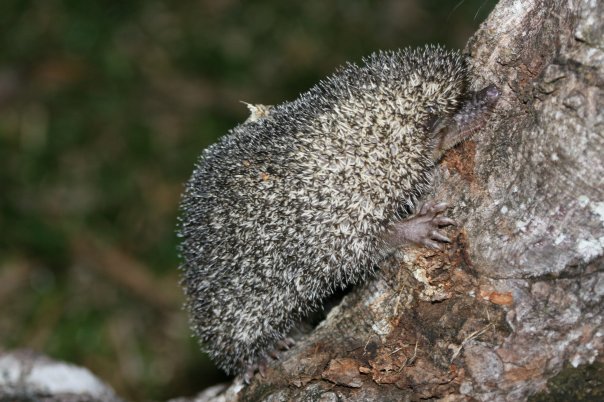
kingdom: Animalia
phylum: Chordata
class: Mammalia
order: Afrosoricida
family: Tenrecidae
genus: Setifer
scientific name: Setifer setosus
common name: Greater hedgehog tenrec
